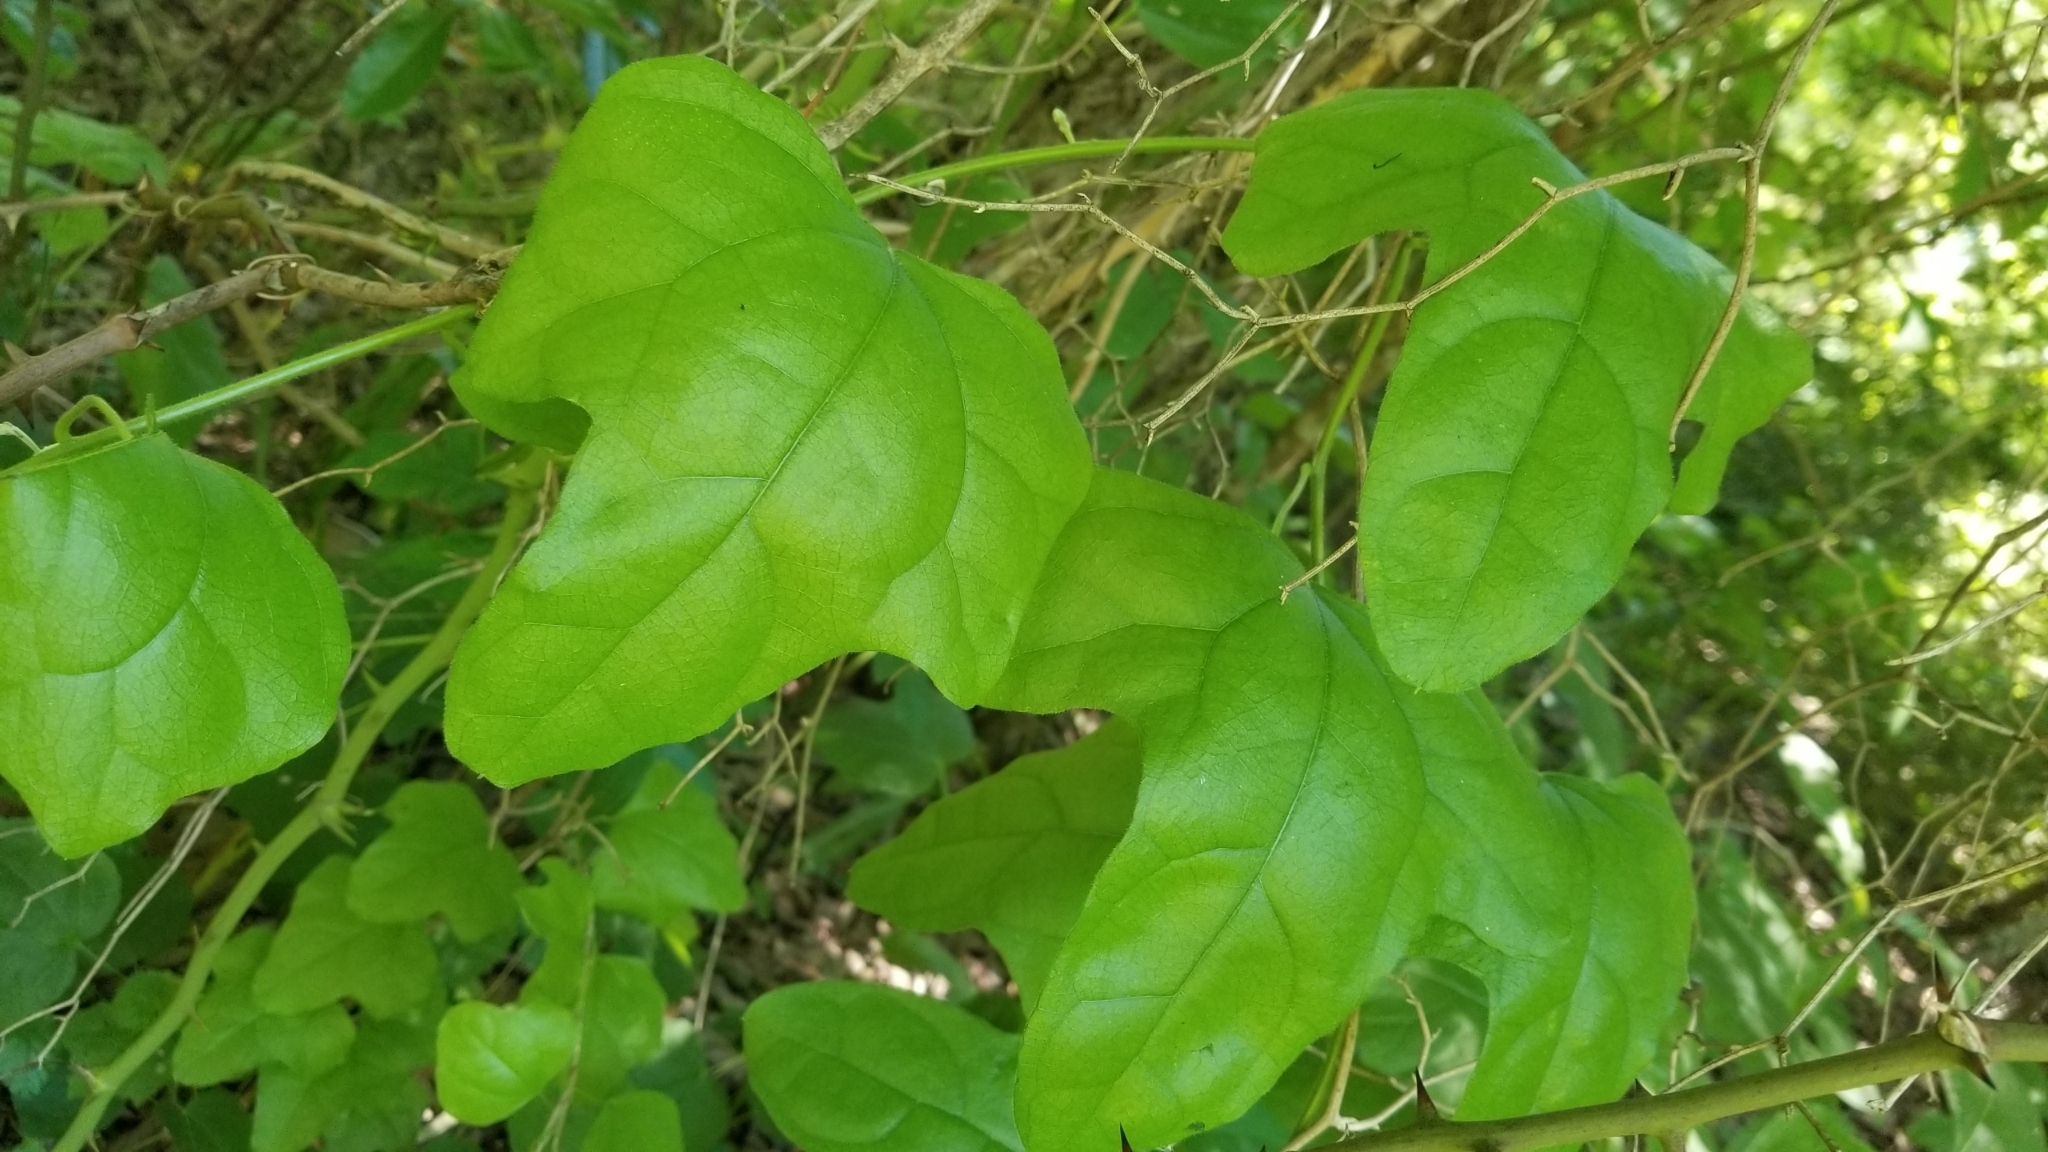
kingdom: Plantae
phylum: Tracheophyta
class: Magnoliopsida
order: Ranunculales
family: Menispermaceae
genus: Cocculus
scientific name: Cocculus carolinus
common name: Carolina moonseed
